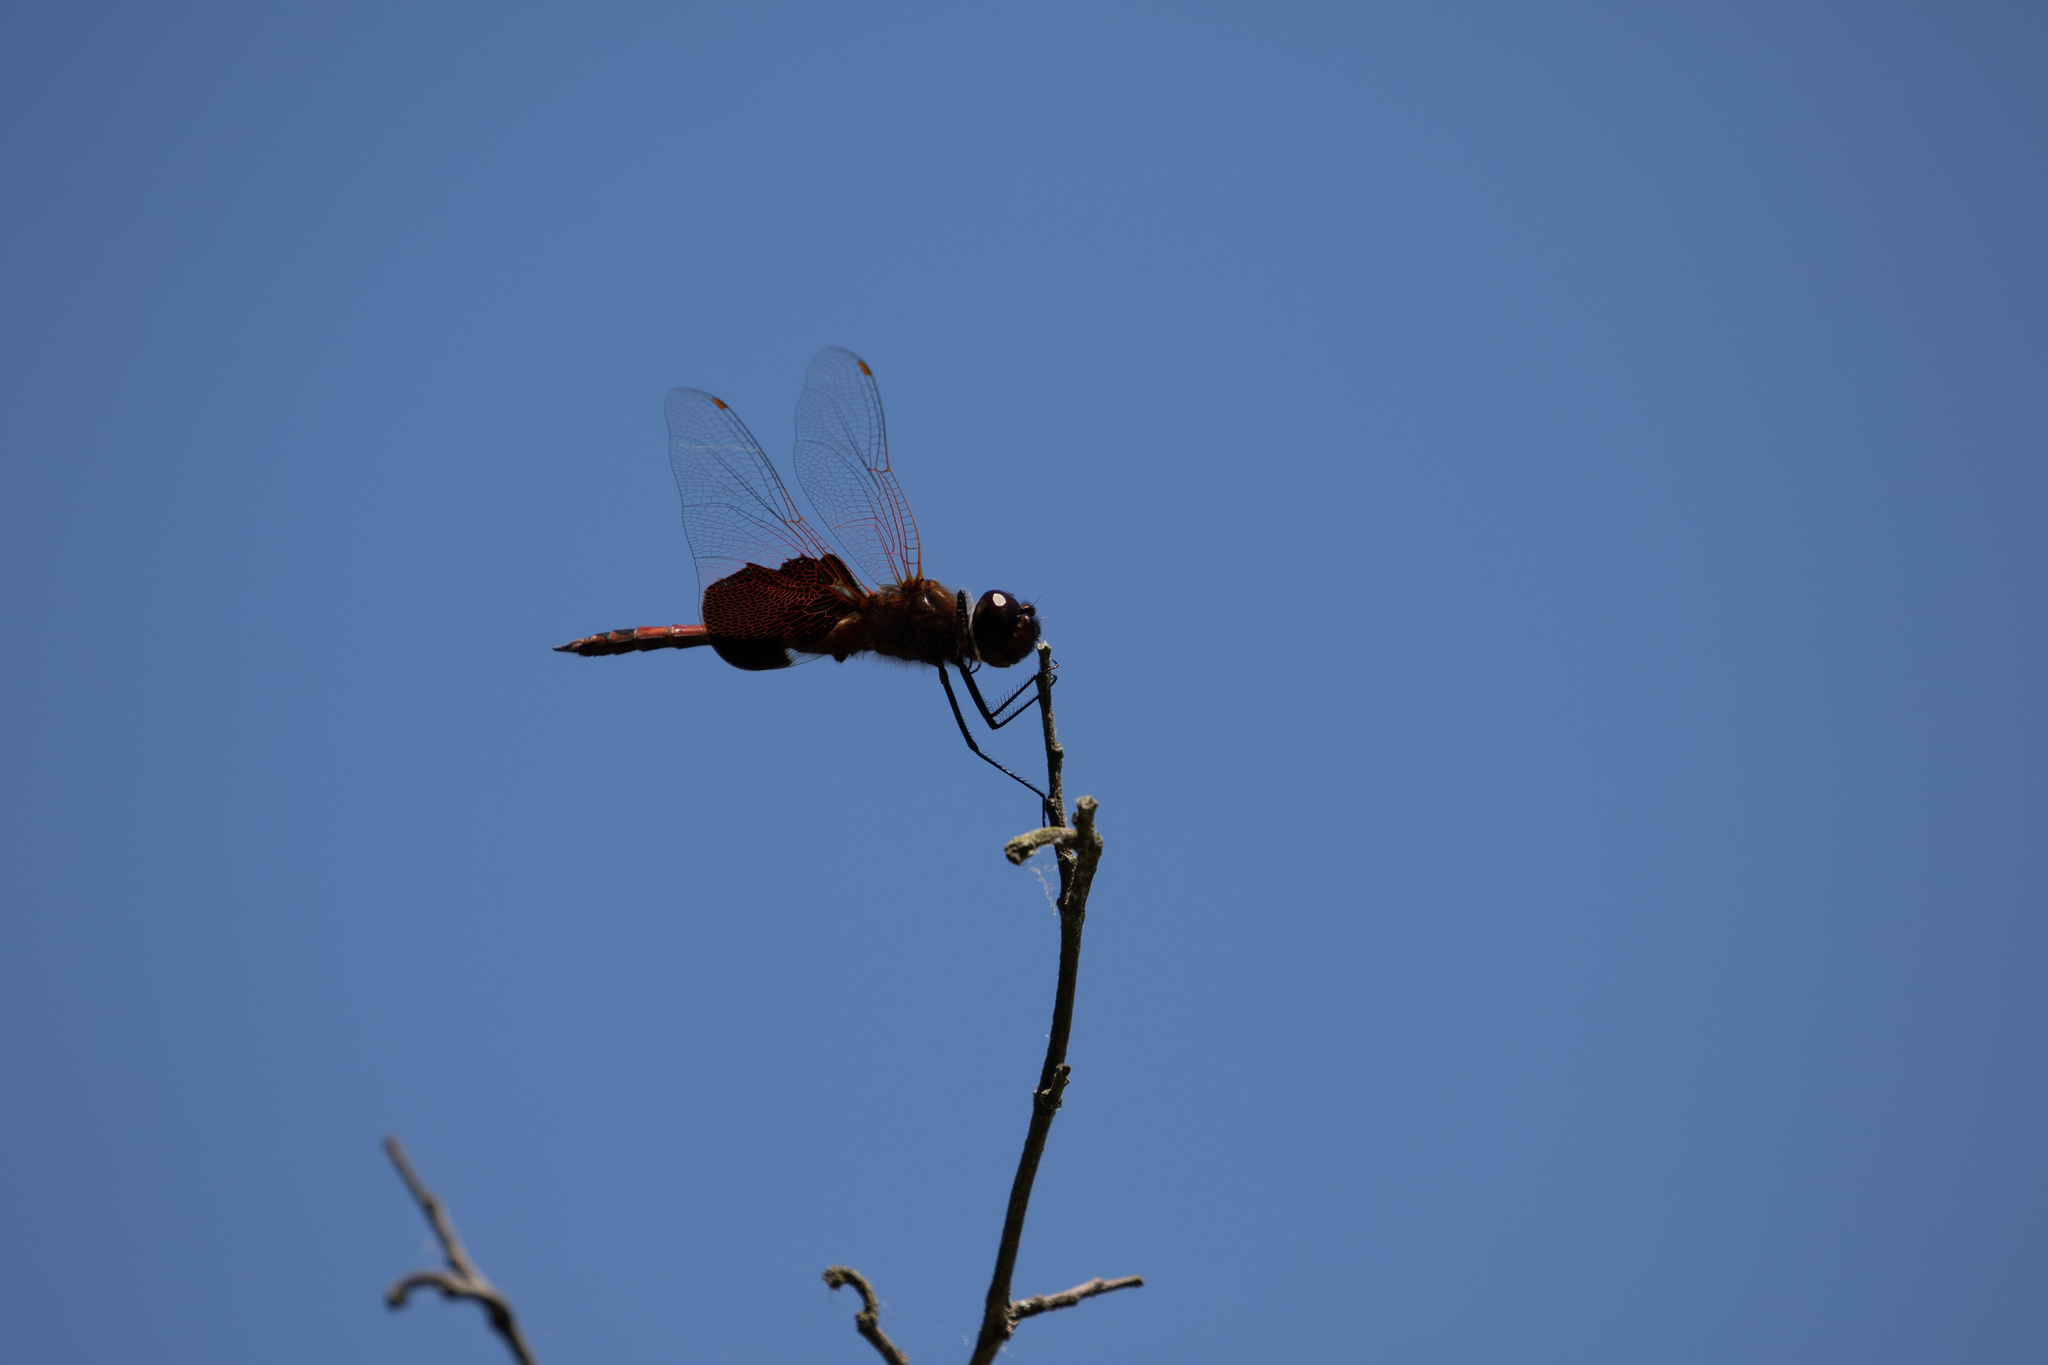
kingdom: Animalia
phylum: Arthropoda
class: Insecta
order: Odonata
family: Libellulidae
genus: Tramea
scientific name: Tramea carolina
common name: Carolina saddlebags
